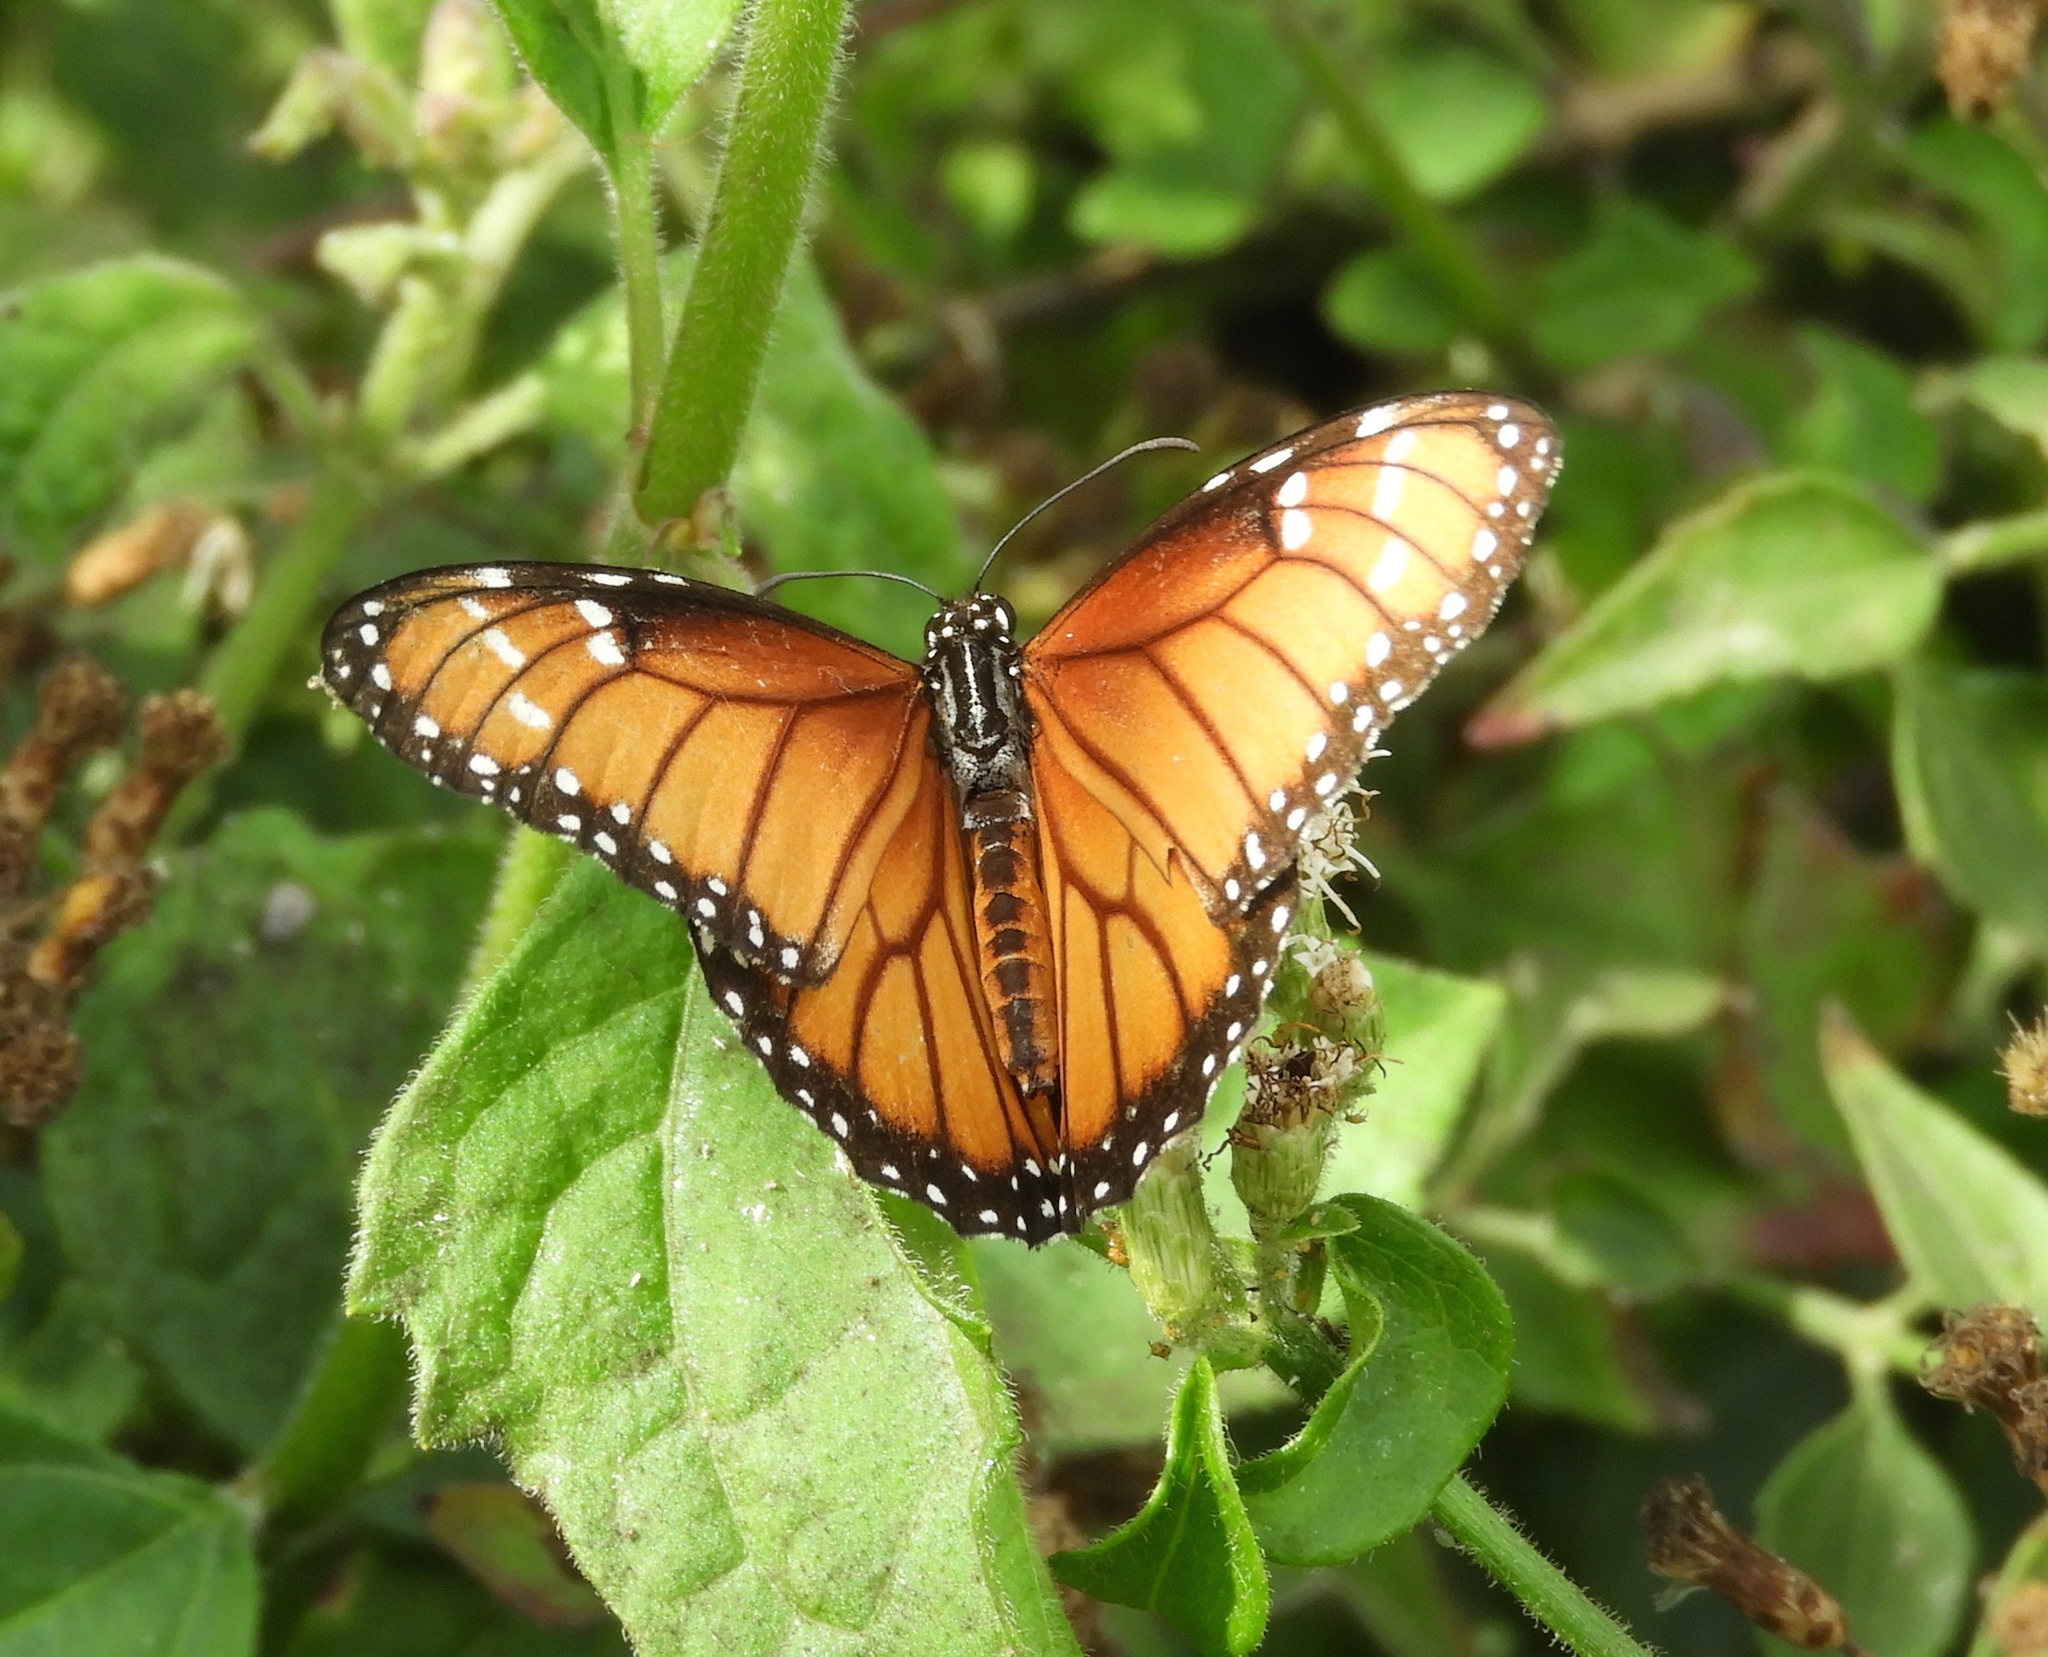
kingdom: Animalia
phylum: Arthropoda
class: Insecta
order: Lepidoptera
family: Nymphalidae
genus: Danaus
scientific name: Danaus eresimus
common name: Soldier
